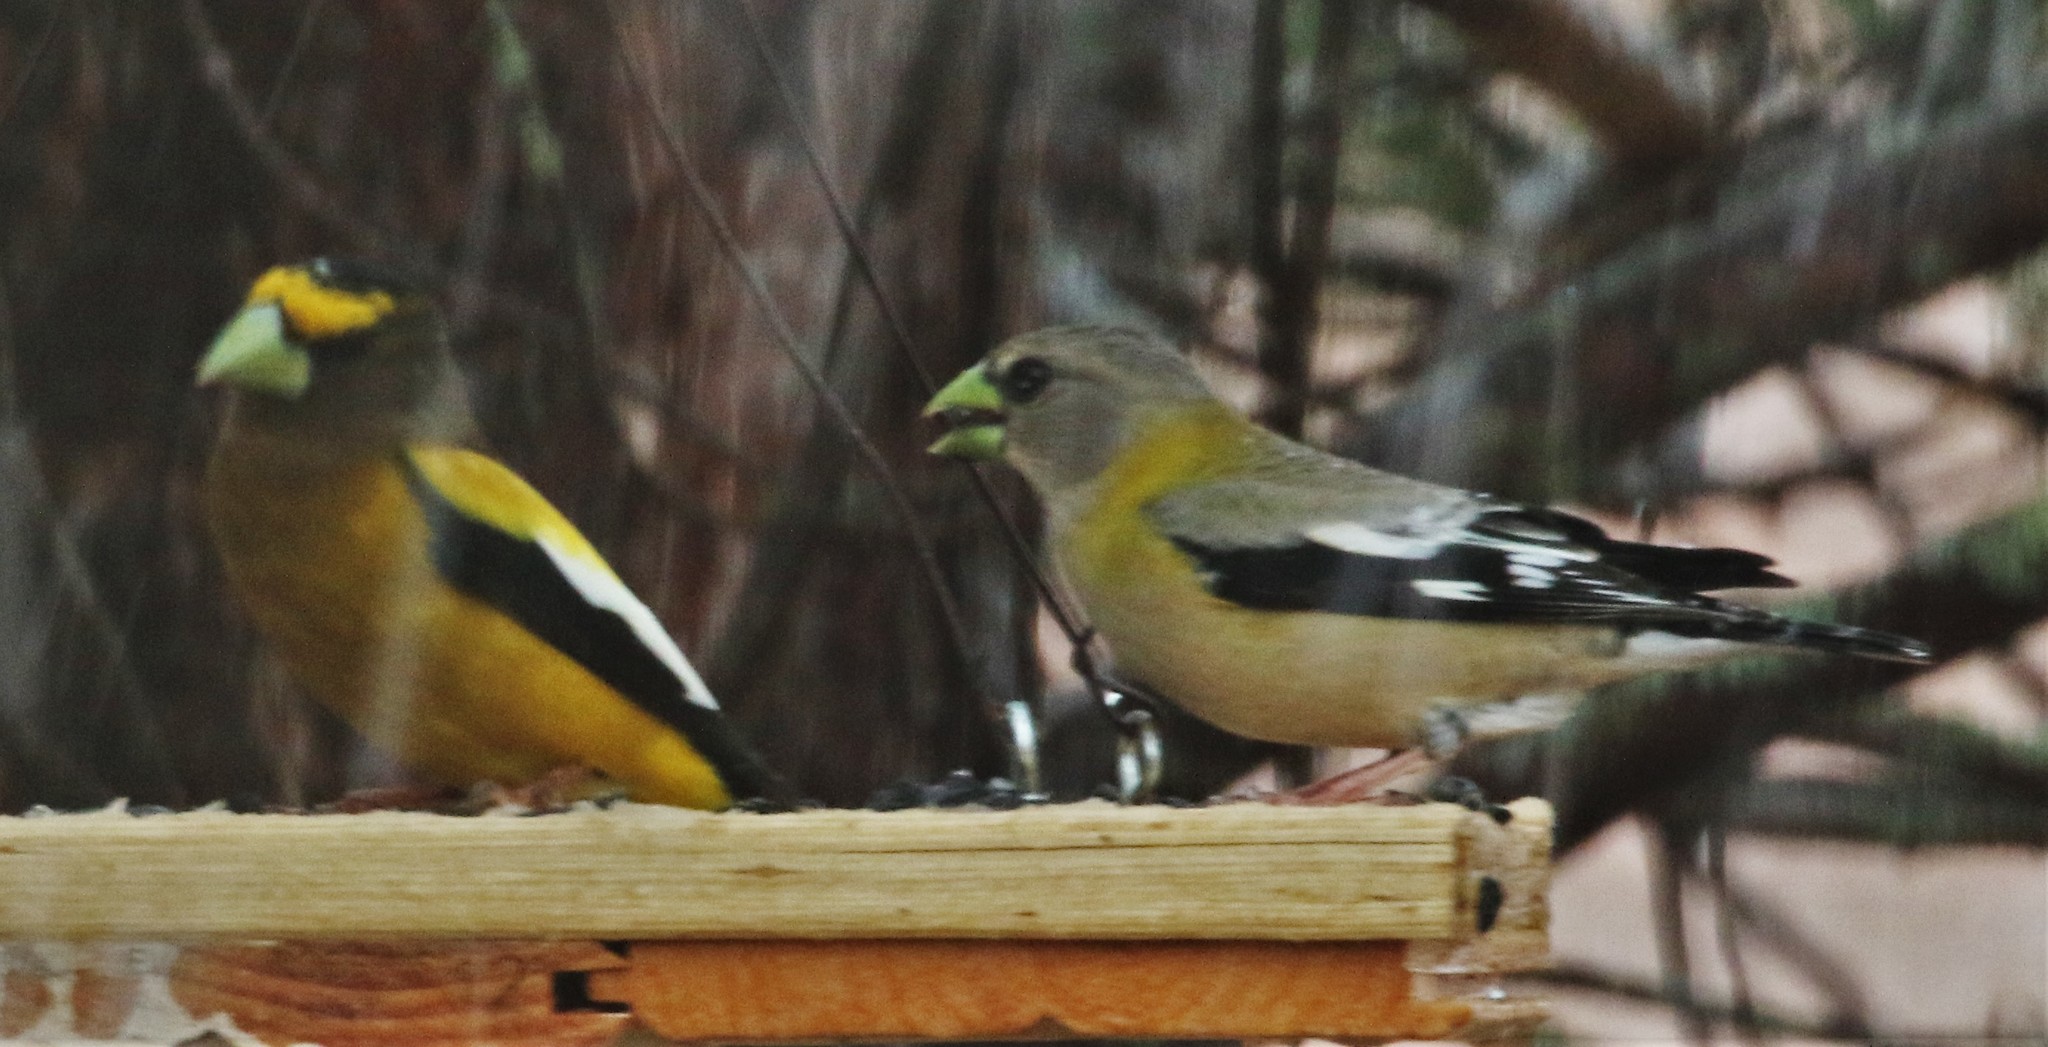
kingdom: Animalia
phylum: Chordata
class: Aves
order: Passeriformes
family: Fringillidae
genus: Hesperiphona
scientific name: Hesperiphona vespertina
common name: Evening grosbeak
